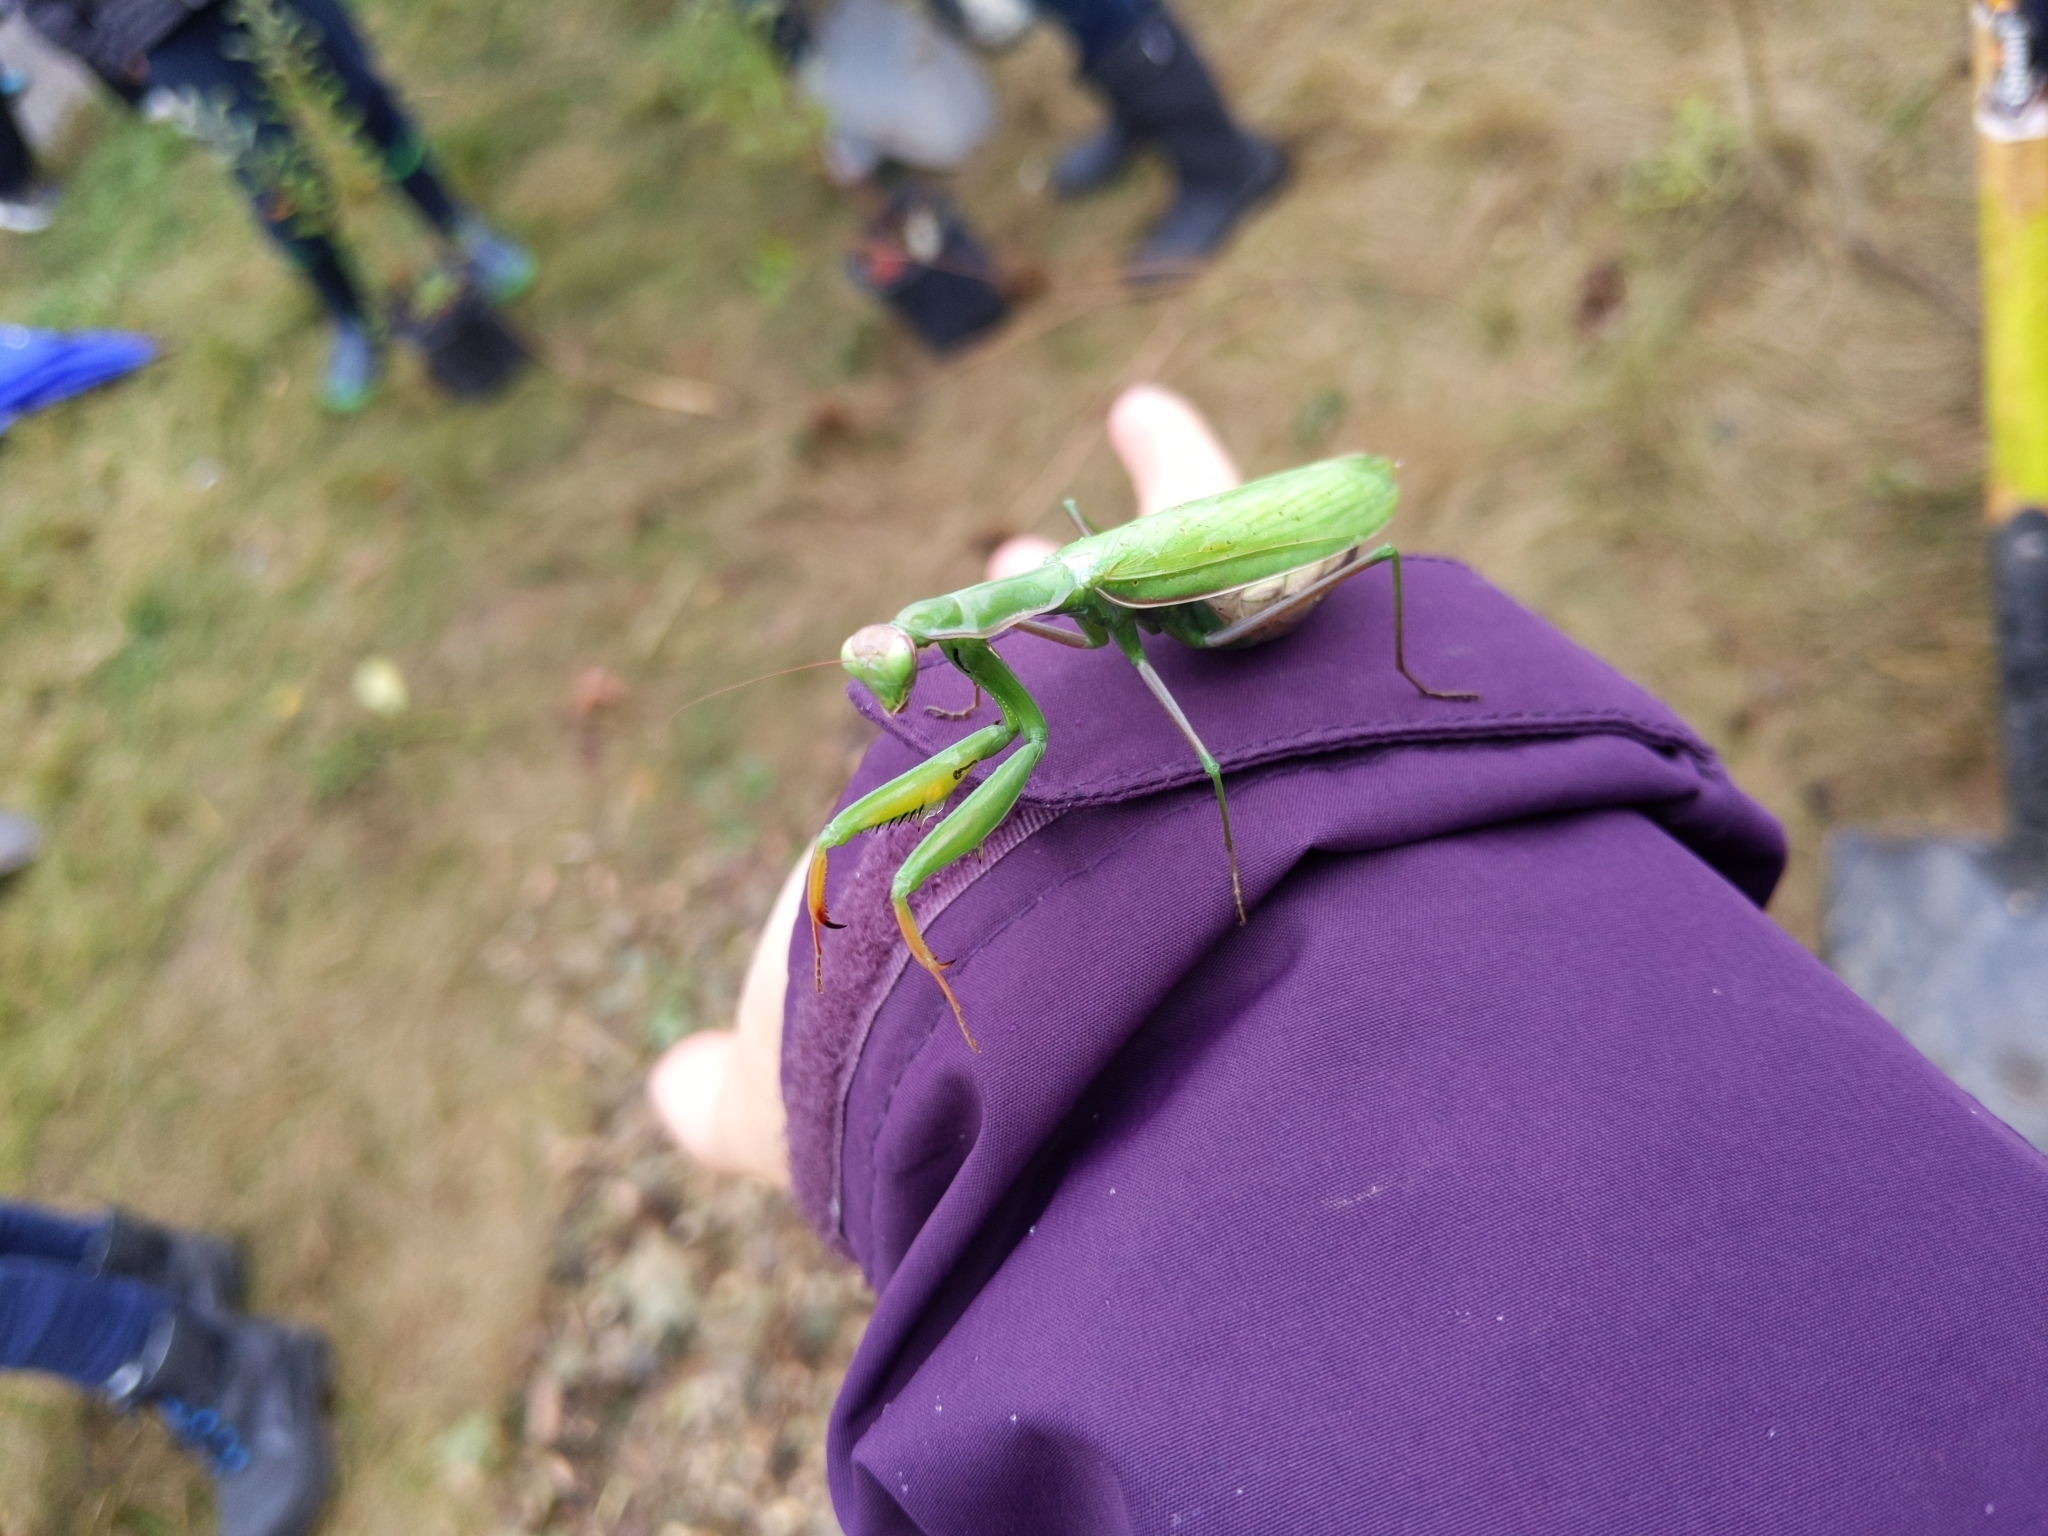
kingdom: Animalia
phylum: Arthropoda
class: Insecta
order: Mantodea
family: Mantidae
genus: Mantis
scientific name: Mantis religiosa
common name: Praying mantis
